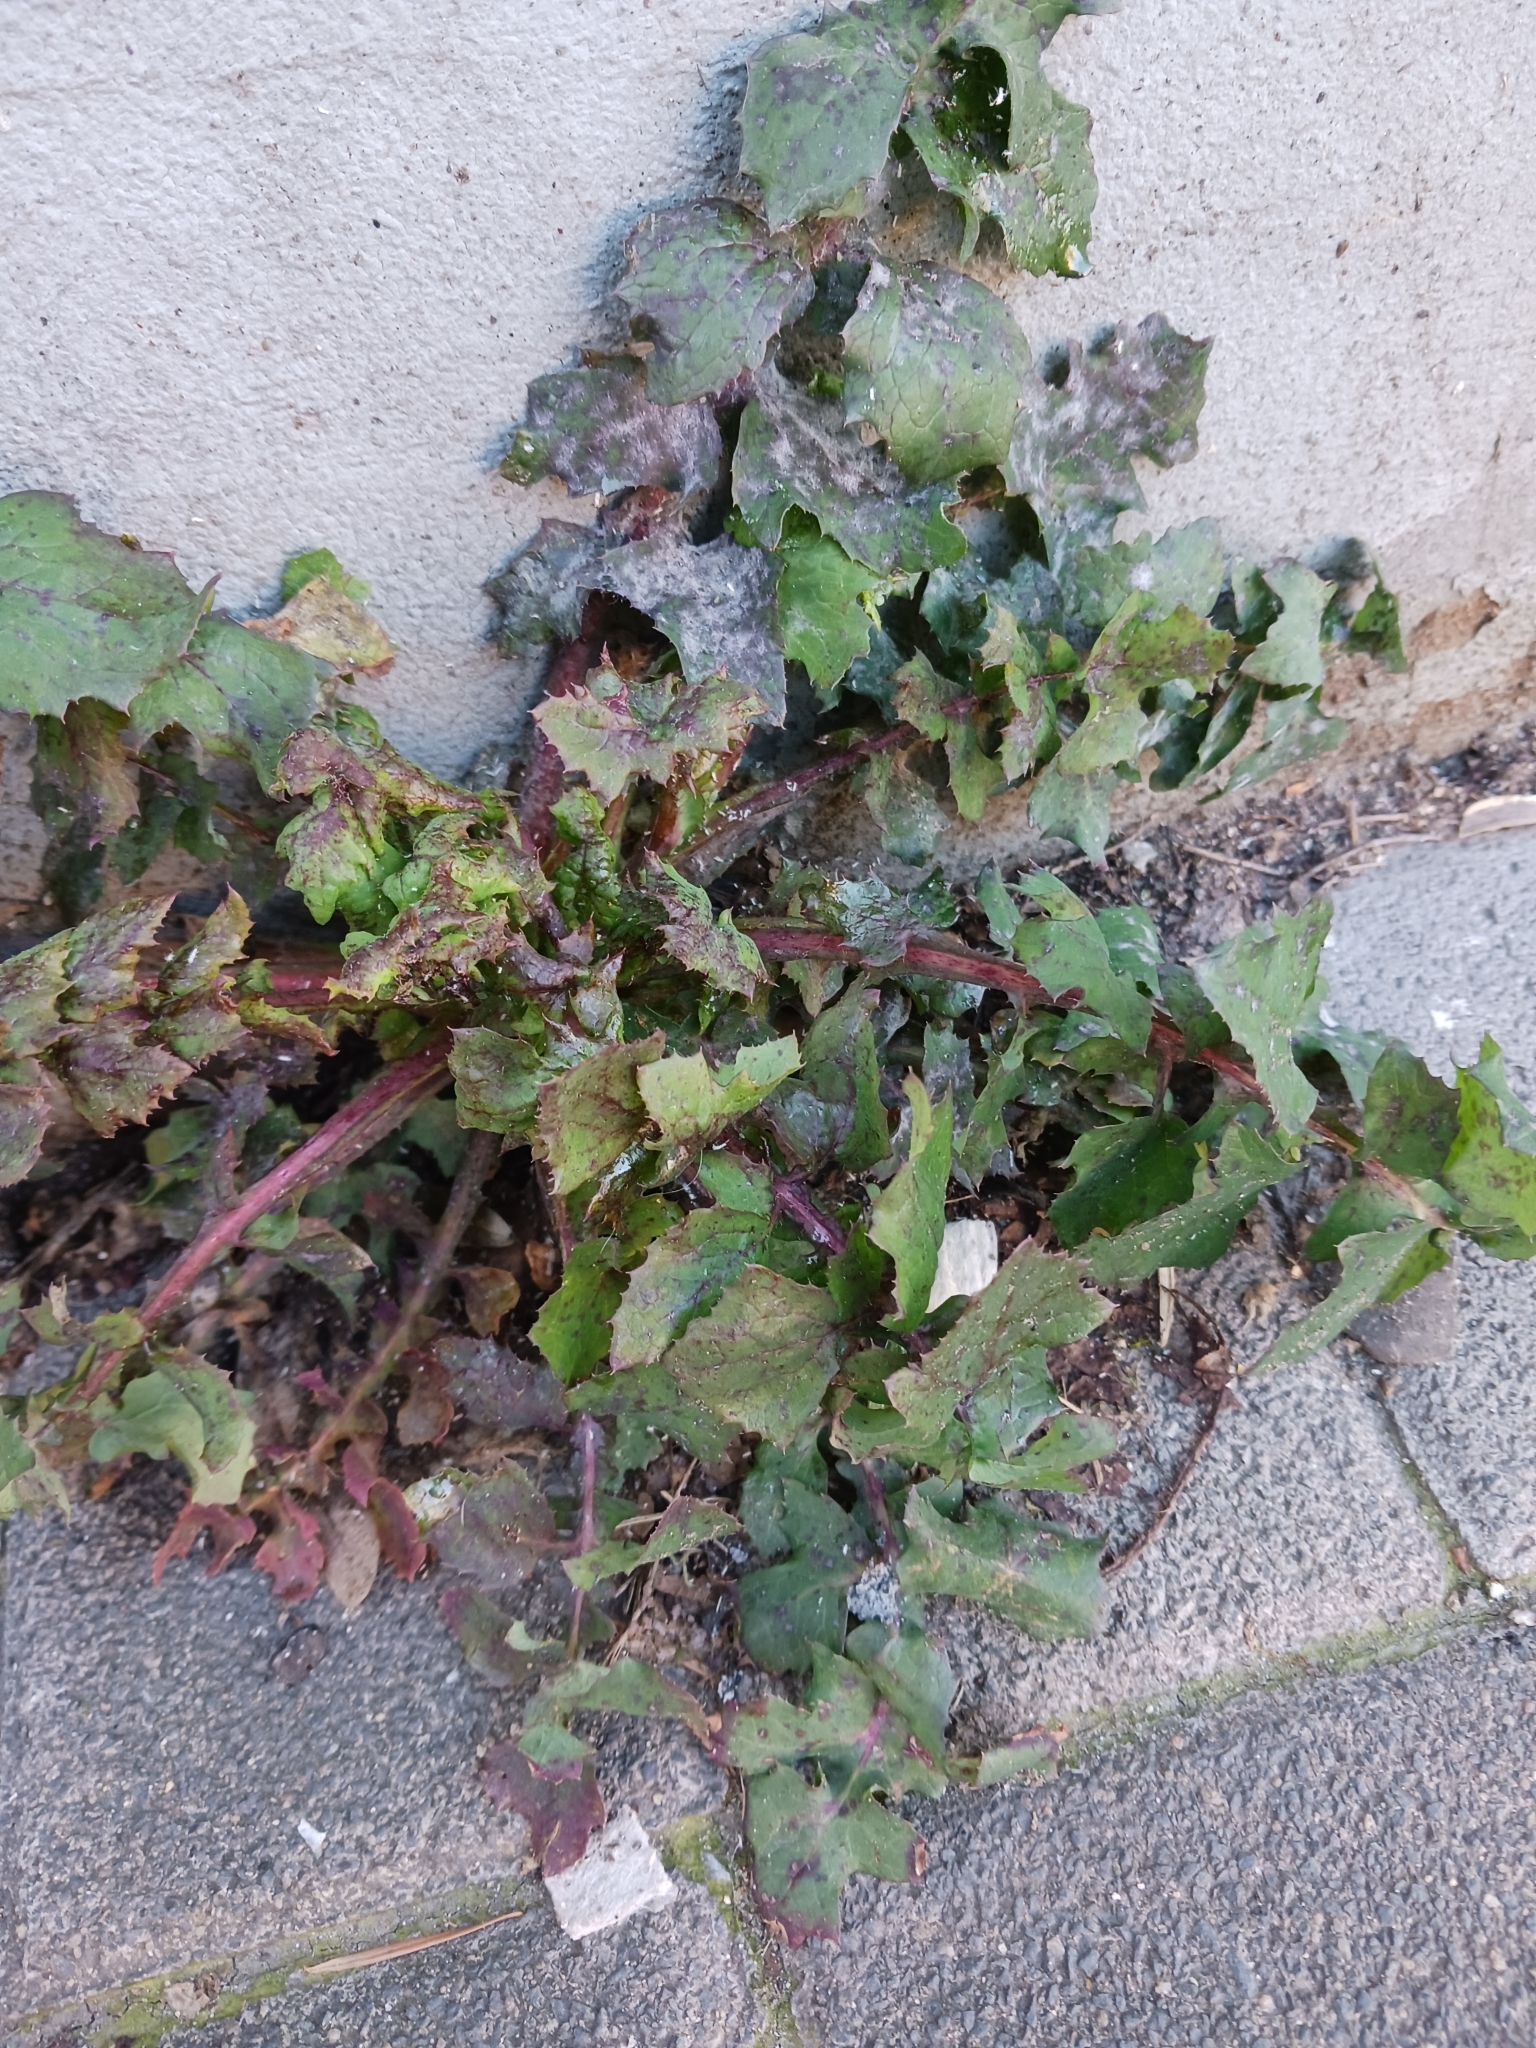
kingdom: Plantae
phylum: Tracheophyta
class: Magnoliopsida
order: Asterales
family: Asteraceae
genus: Sonchus
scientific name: Sonchus oleraceus
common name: Common sowthistle
